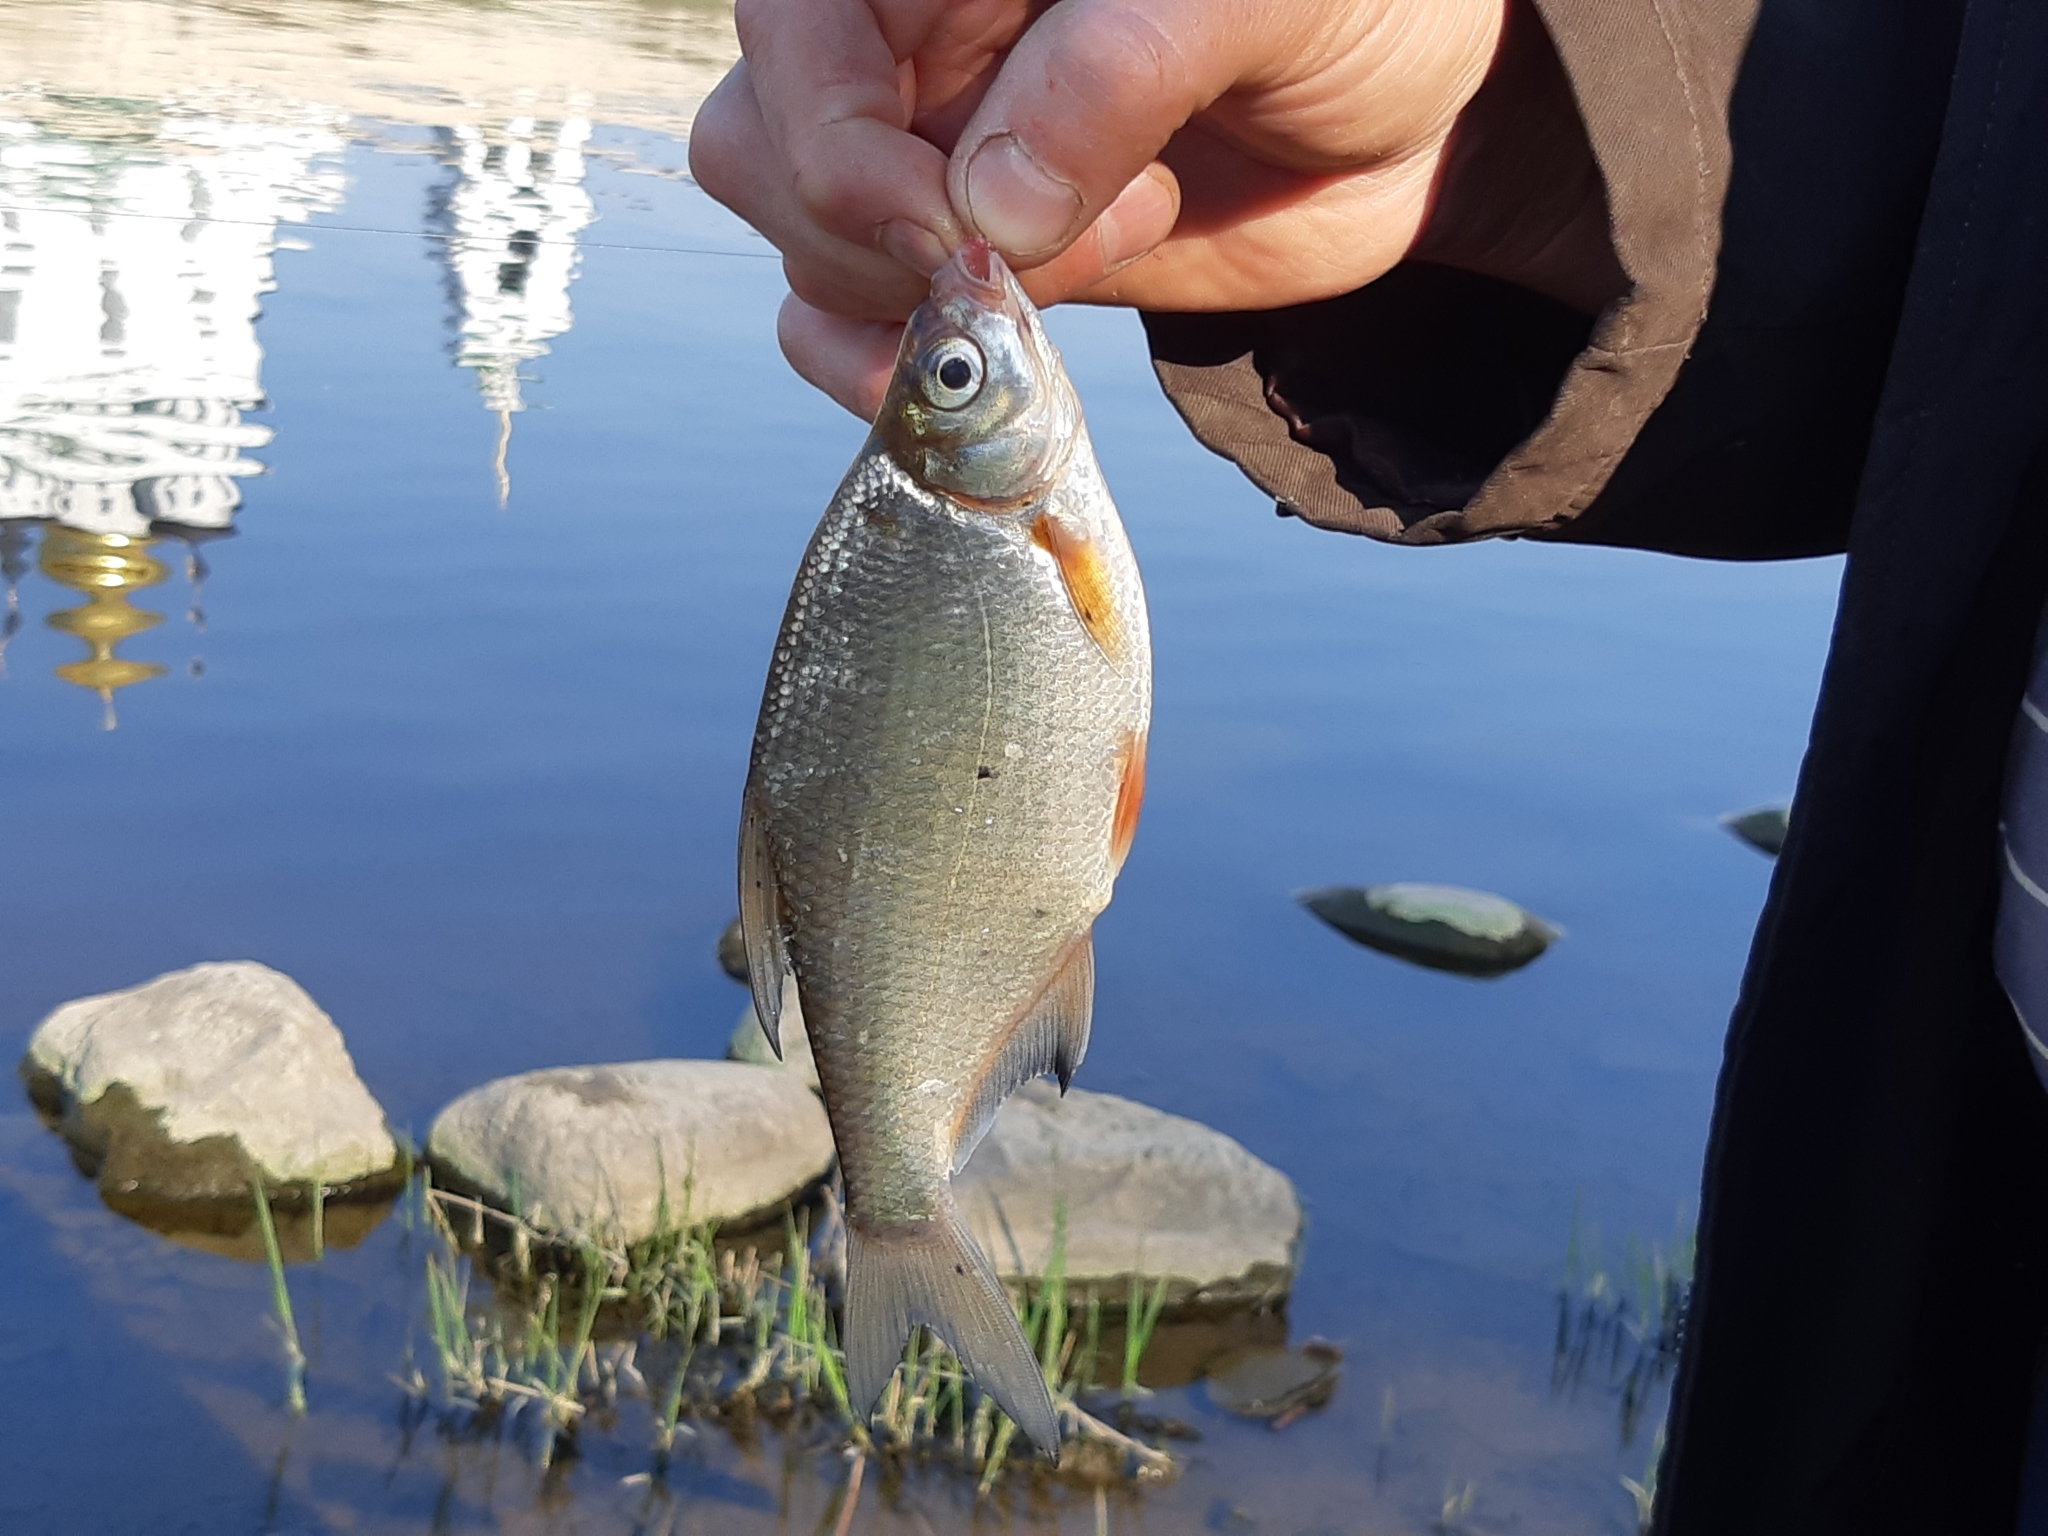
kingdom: Animalia
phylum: Chordata
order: Cypriniformes
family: Cyprinidae
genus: Blicca
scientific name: Blicca bjoerkna
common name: White bream
